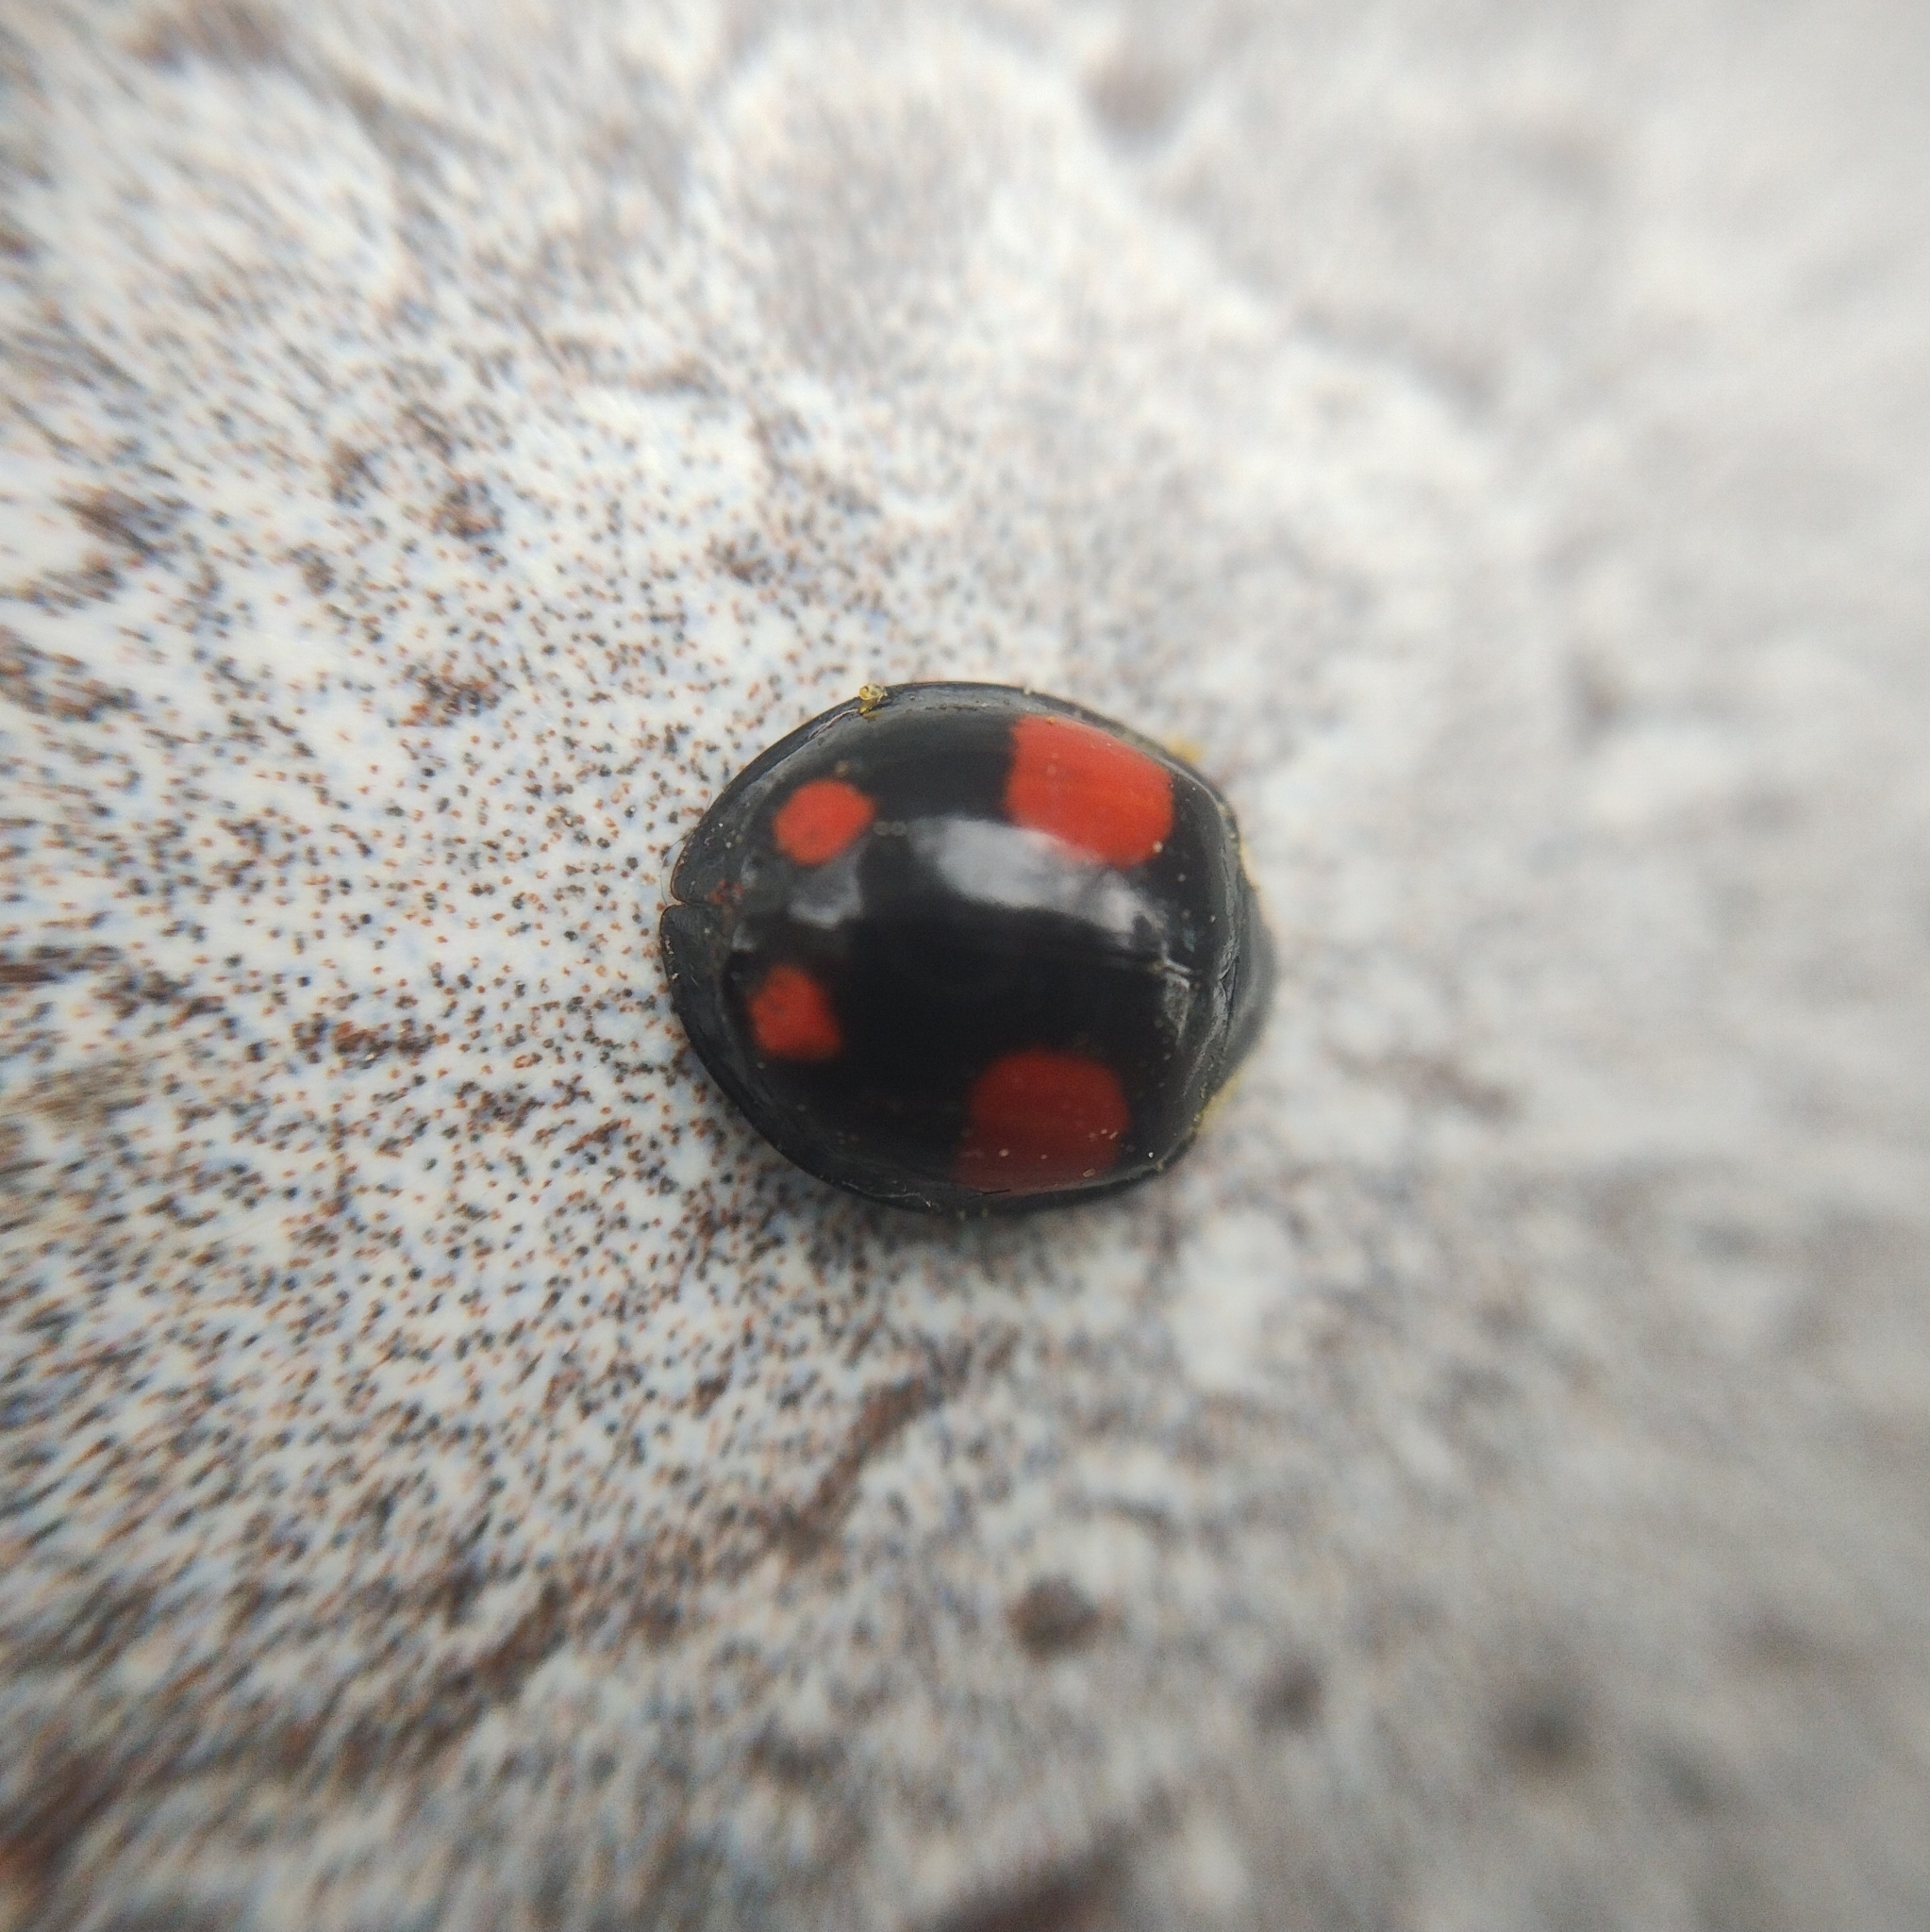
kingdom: Animalia
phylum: Arthropoda
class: Insecta
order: Coleoptera
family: Coccinellidae
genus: Harmonia
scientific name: Harmonia axyridis
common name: Harlequin ladybird
